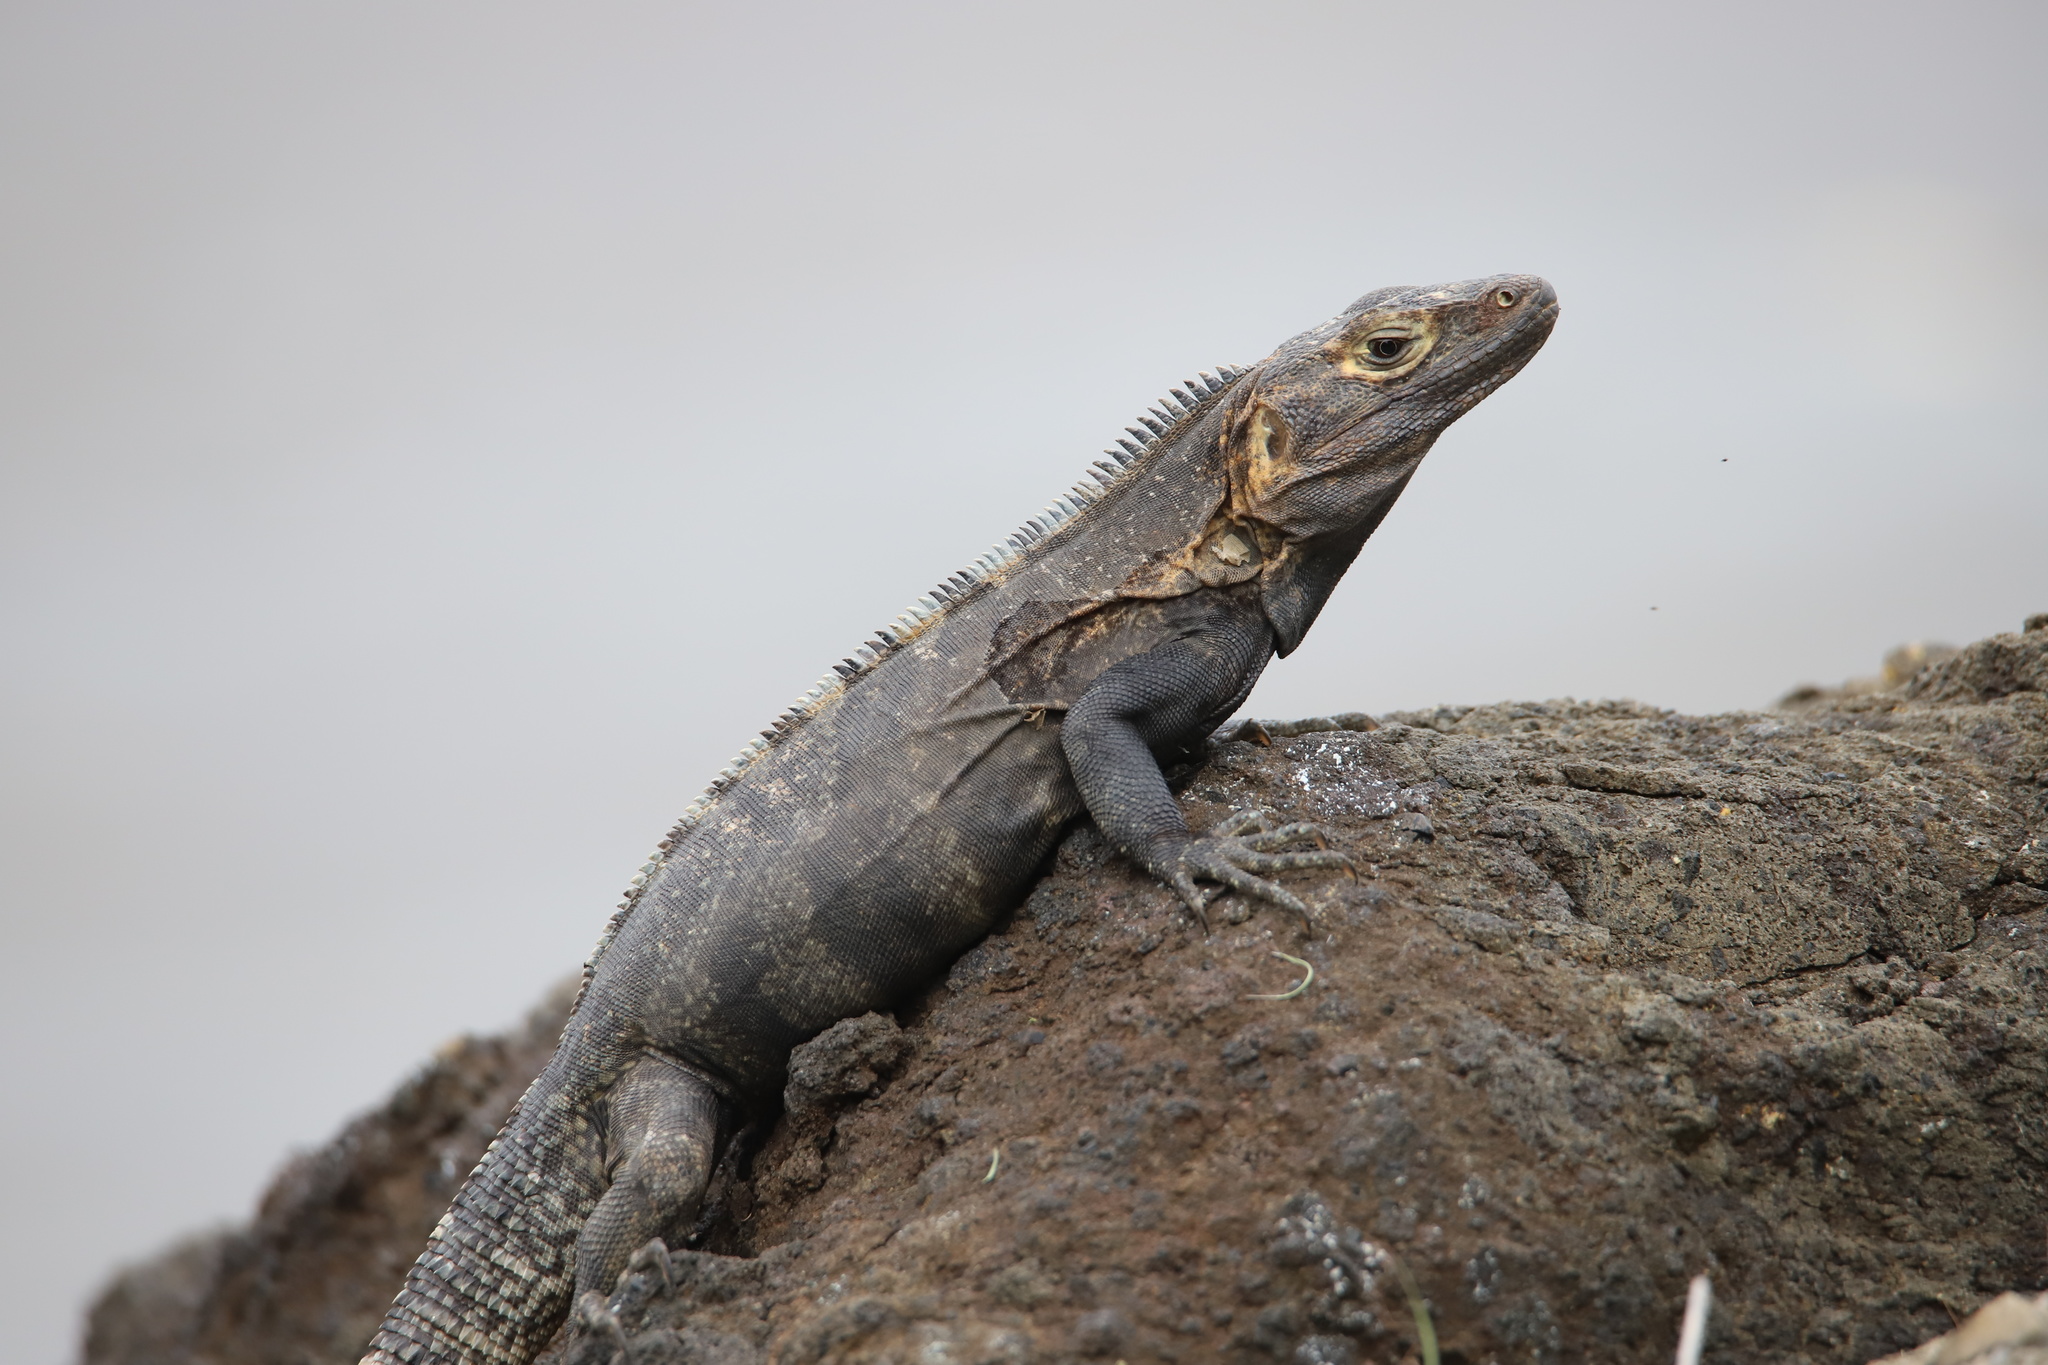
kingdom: Animalia
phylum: Chordata
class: Squamata
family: Iguanidae
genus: Ctenosaura
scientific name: Ctenosaura similis
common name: Black spiny-tailed iguana
